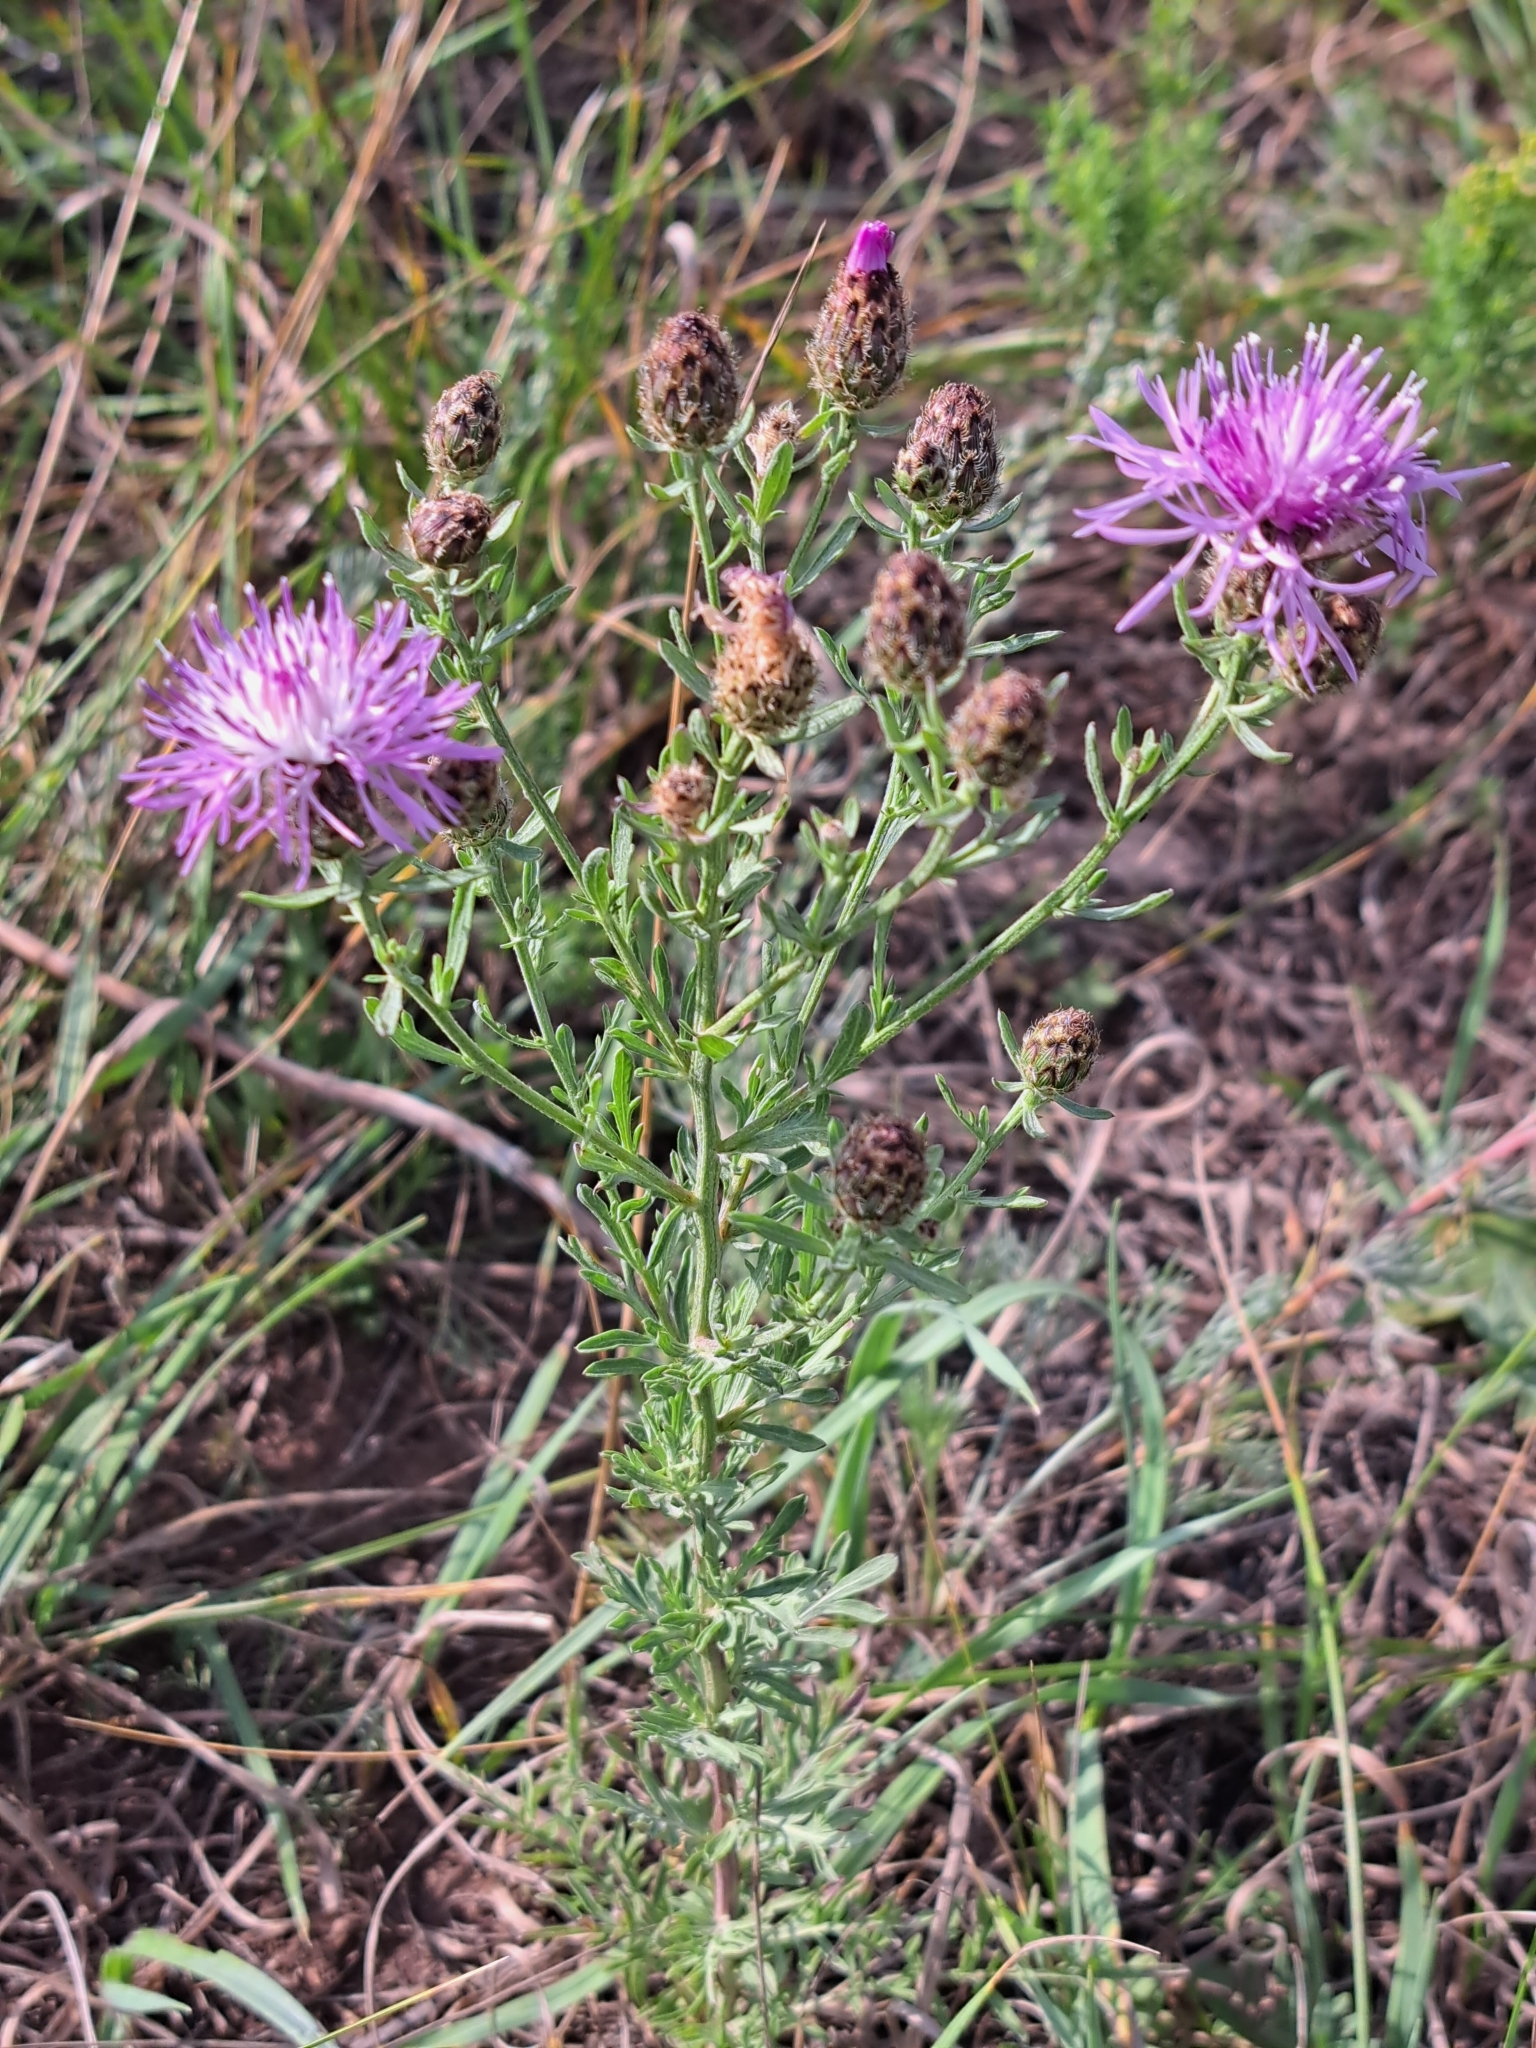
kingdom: Plantae
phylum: Tracheophyta
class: Magnoliopsida
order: Asterales
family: Asteraceae
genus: Centaurea
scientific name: Centaurea stoebe
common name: Spotted knapweed
